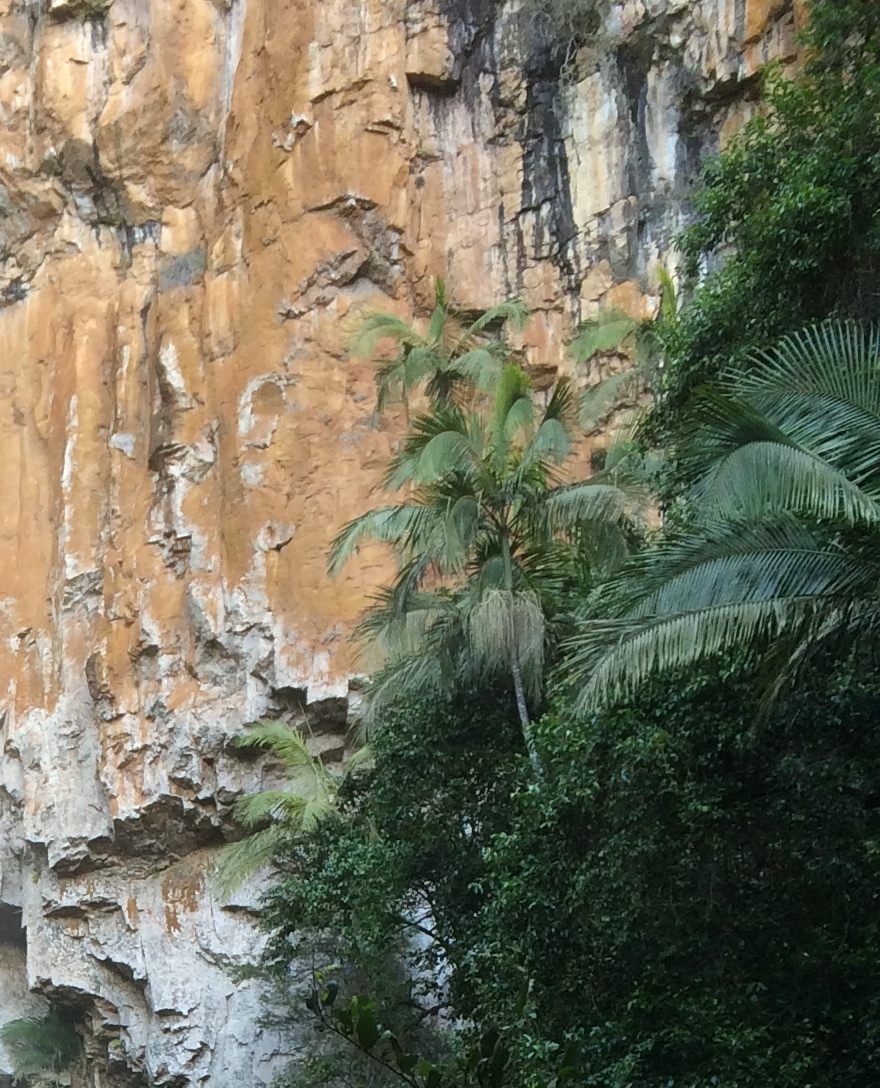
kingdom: Plantae
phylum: Tracheophyta
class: Liliopsida
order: Arecales
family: Arecaceae
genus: Archontophoenix
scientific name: Archontophoenix cunninghamiana
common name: Piccabeen bangalow palm
